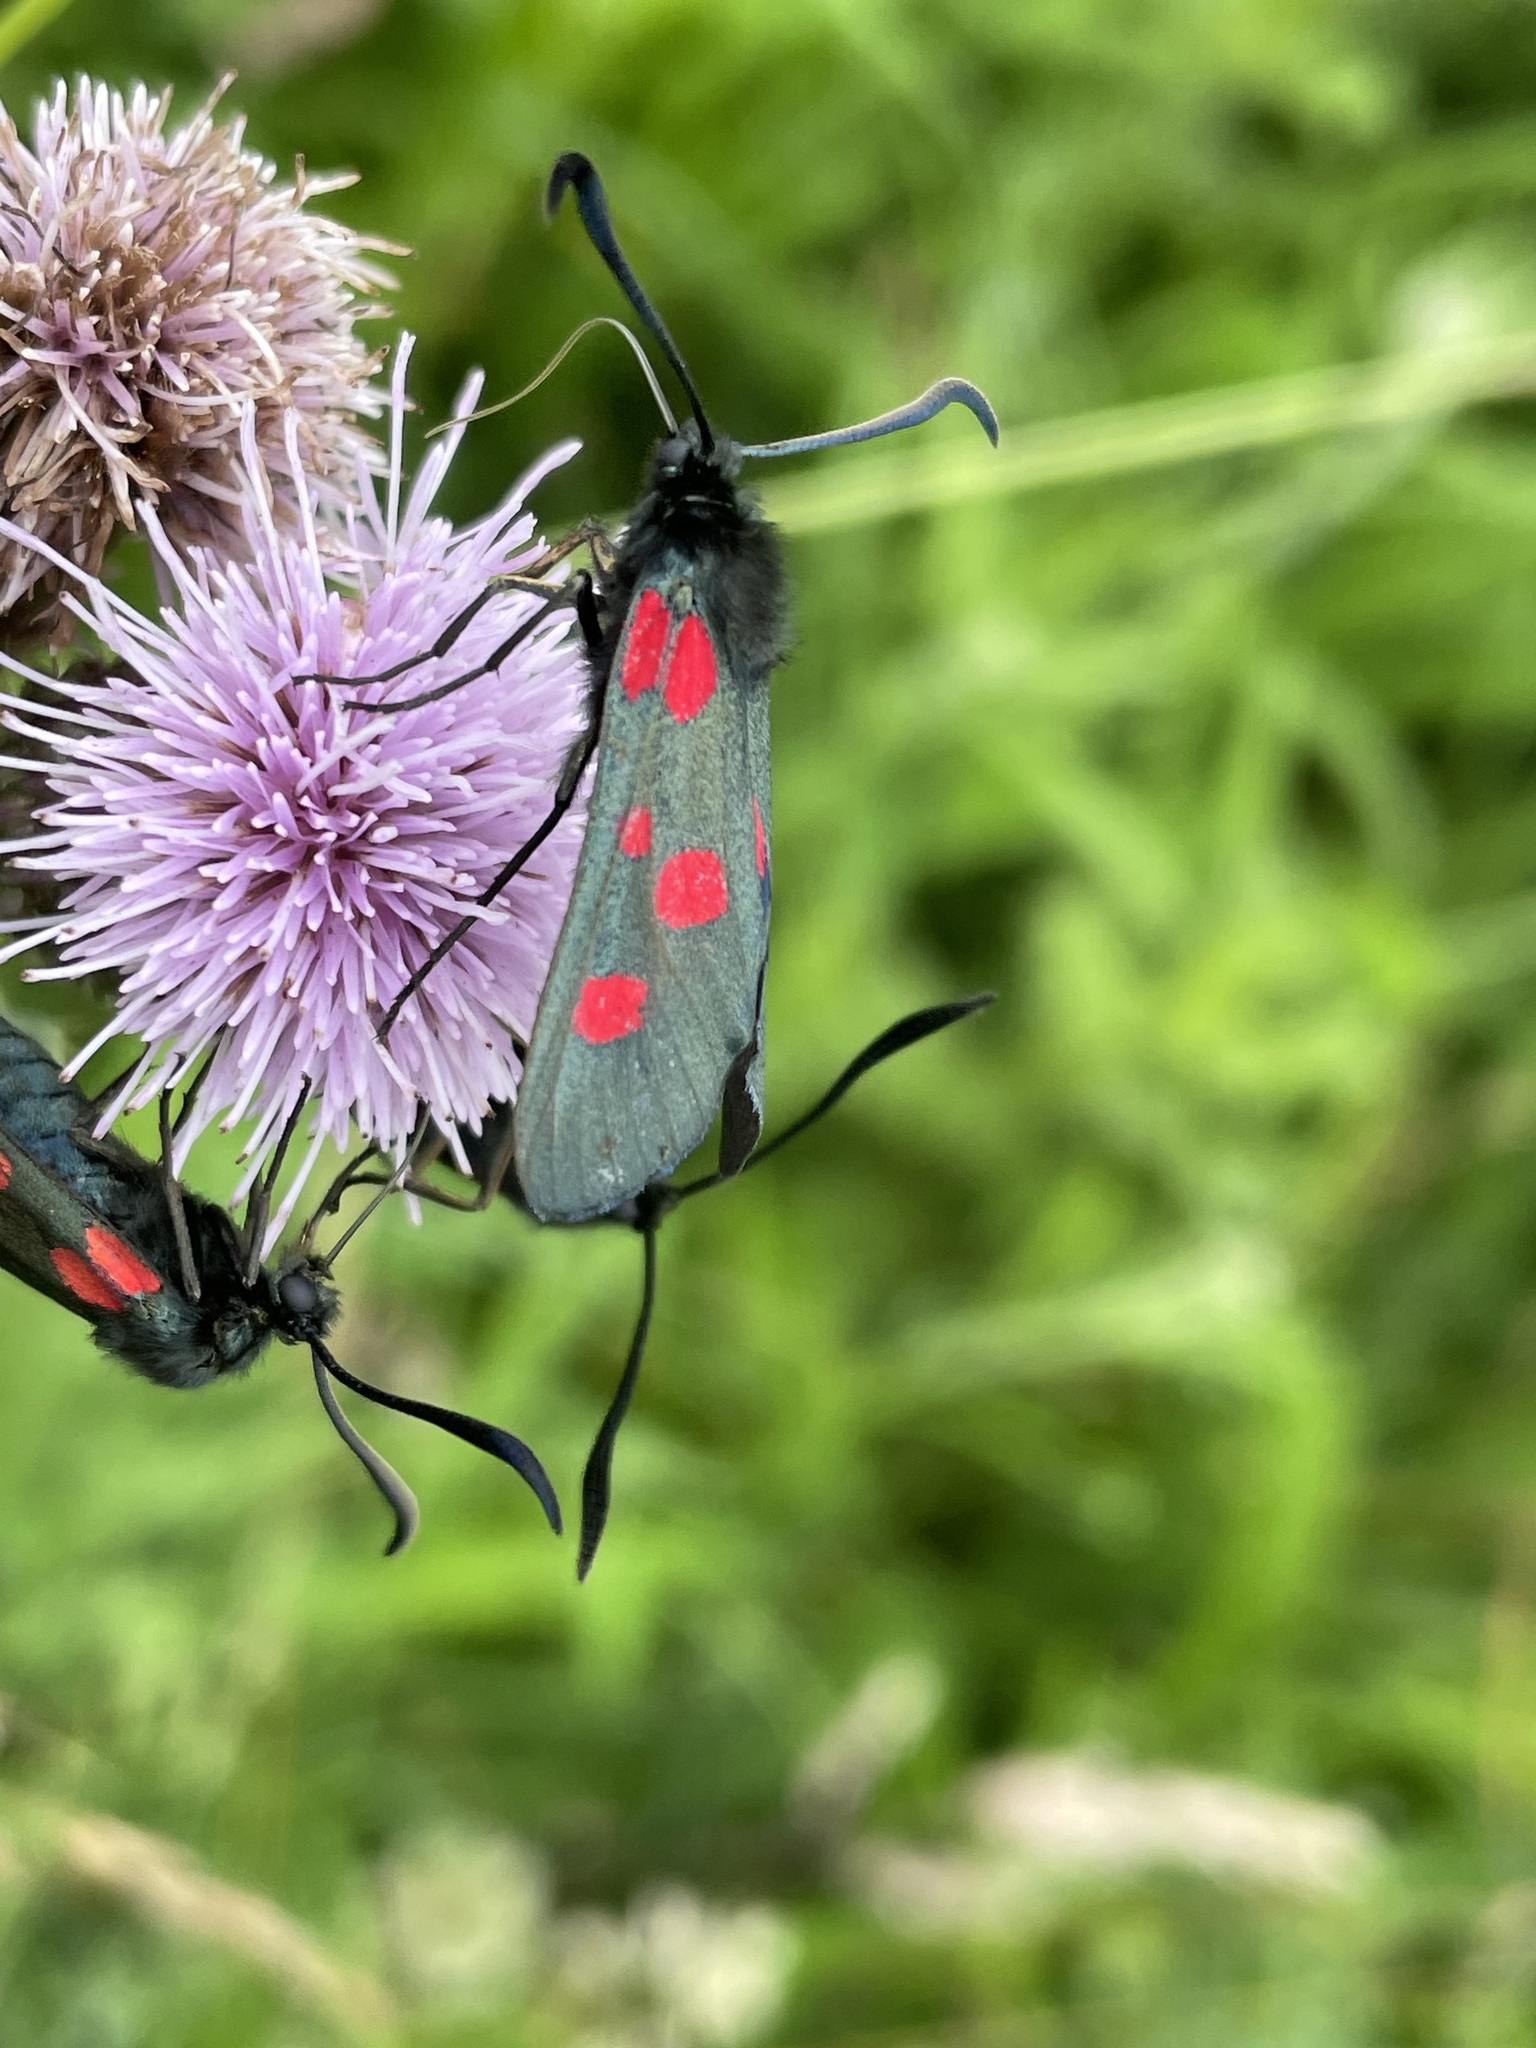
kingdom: Animalia
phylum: Arthropoda
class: Insecta
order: Lepidoptera
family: Zygaenidae
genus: Zygaena
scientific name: Zygaena lonicerae
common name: Narrow-bordered five-spot burnet
